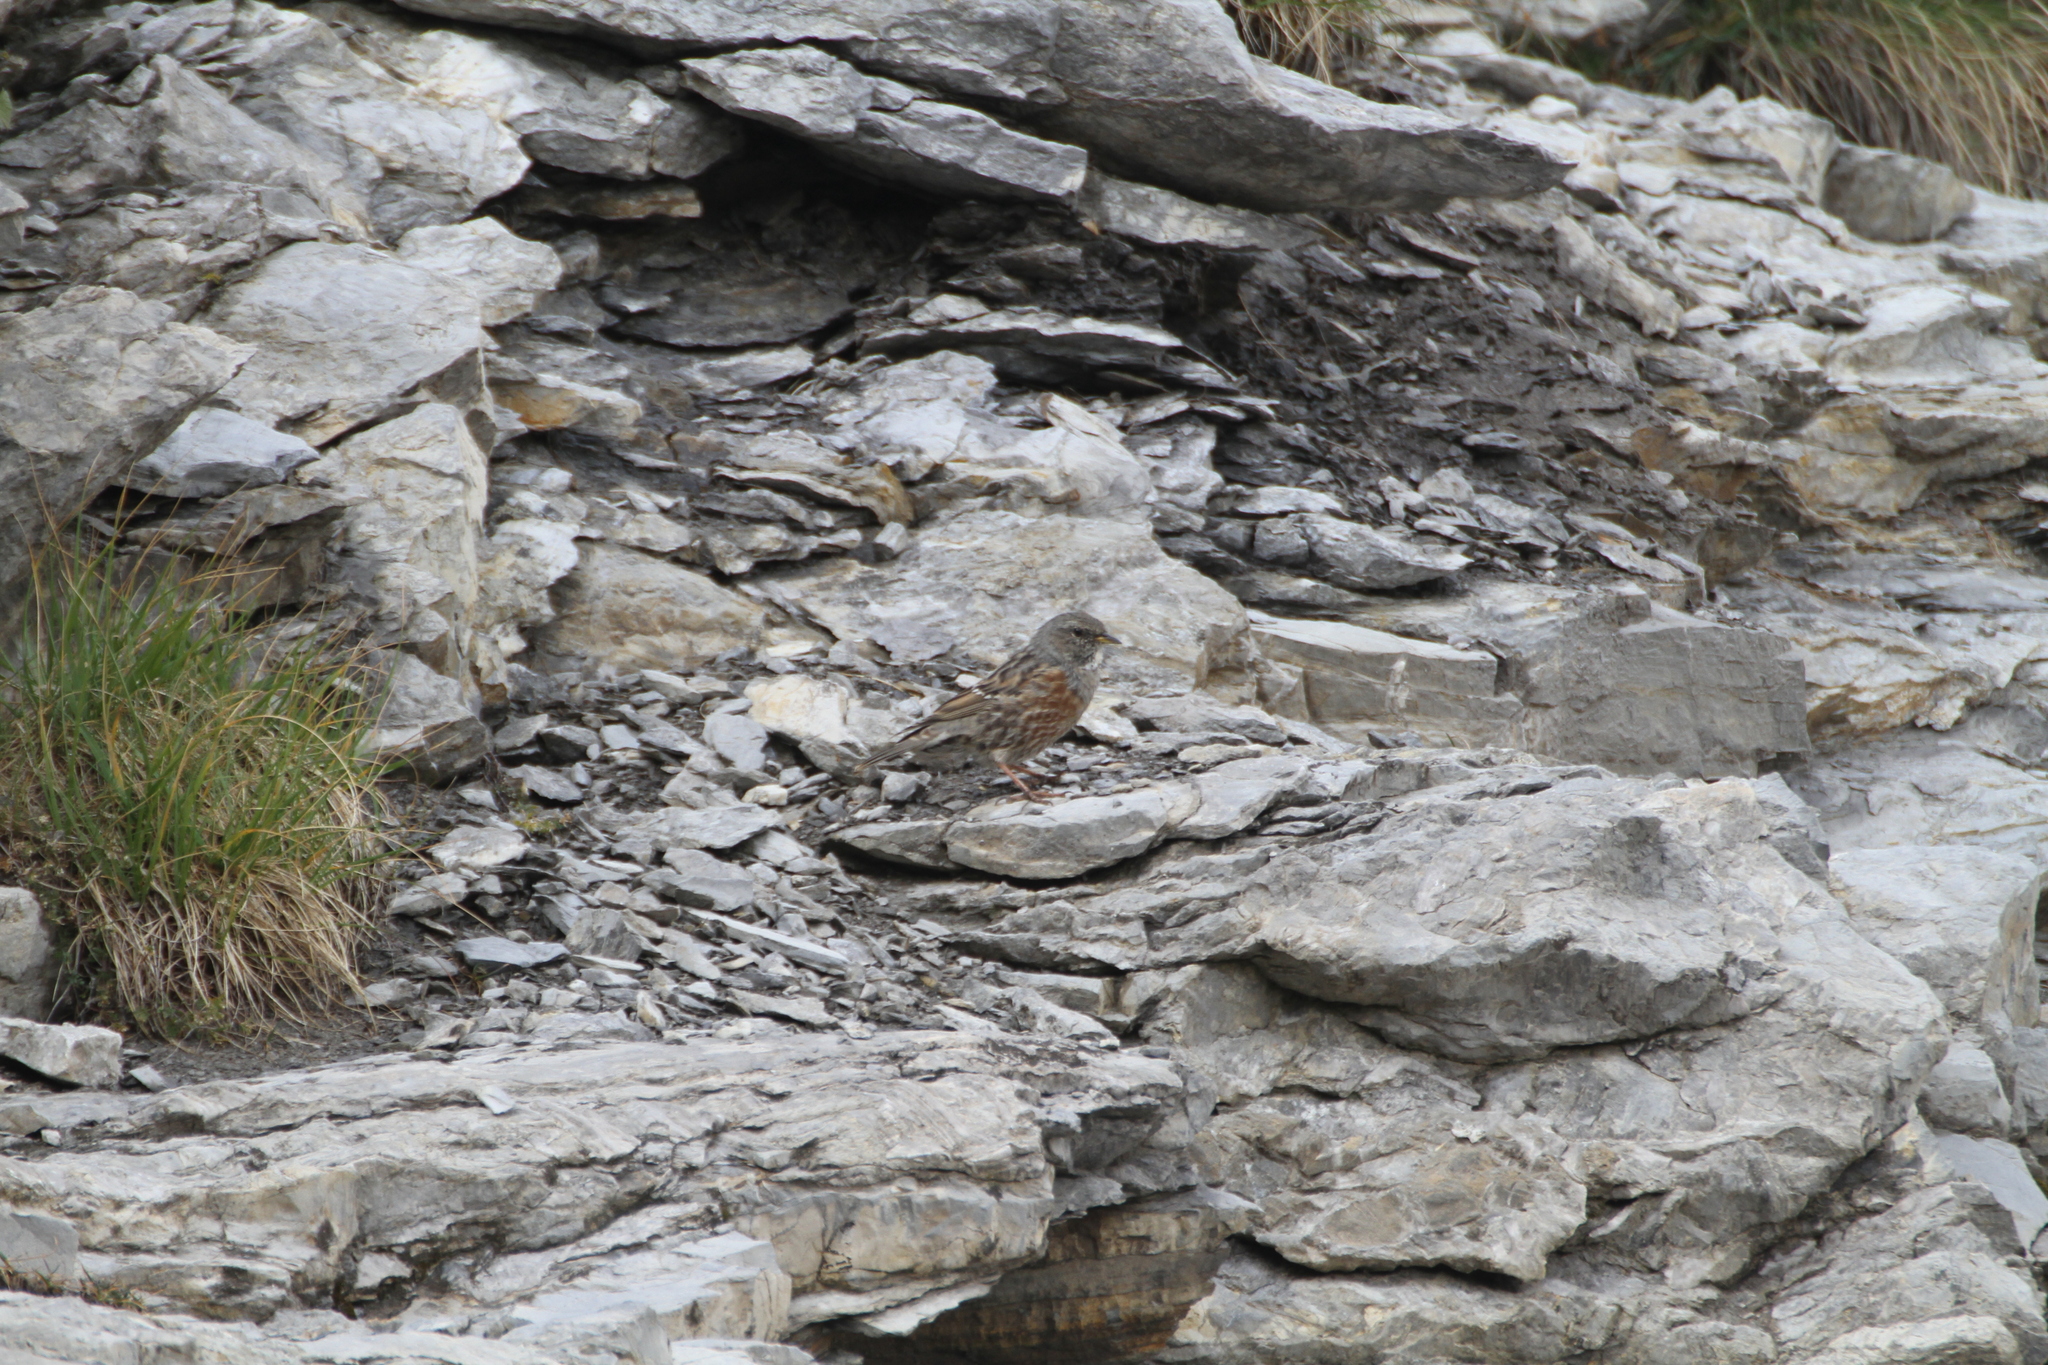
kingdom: Animalia
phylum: Chordata
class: Aves
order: Passeriformes
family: Prunellidae
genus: Prunella
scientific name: Prunella collaris
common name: Alpine accentor
